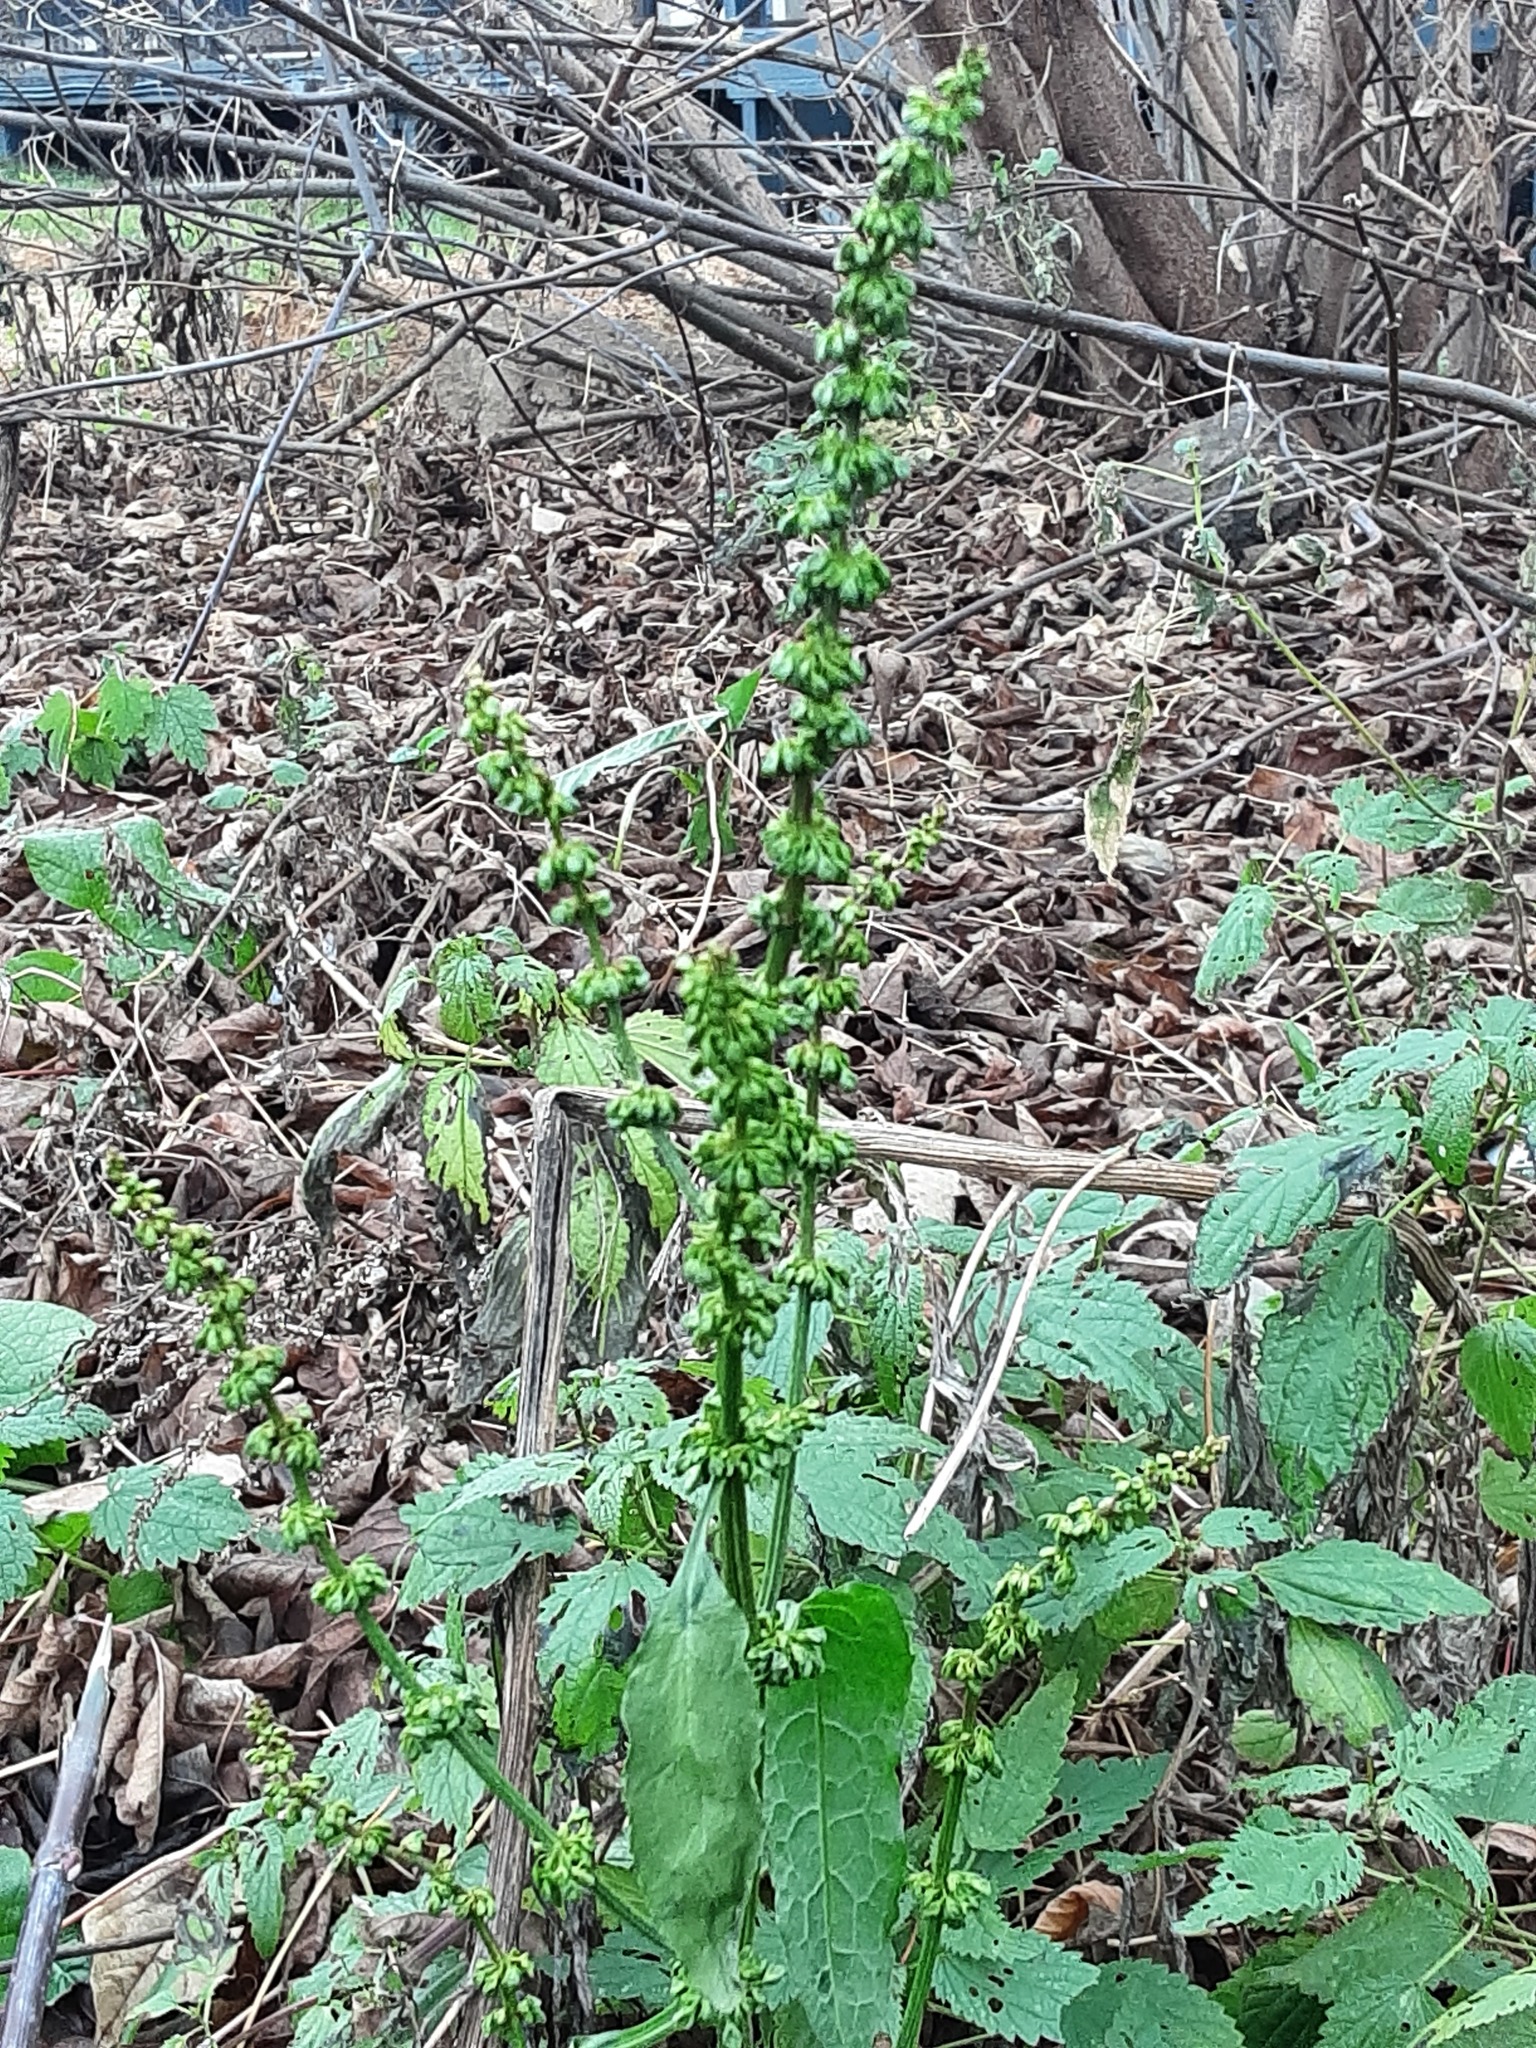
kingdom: Plantae
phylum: Tracheophyta
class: Magnoliopsida
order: Caryophyllales
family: Polygonaceae
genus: Rumex
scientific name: Rumex obtusifolius
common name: Bitter dock
